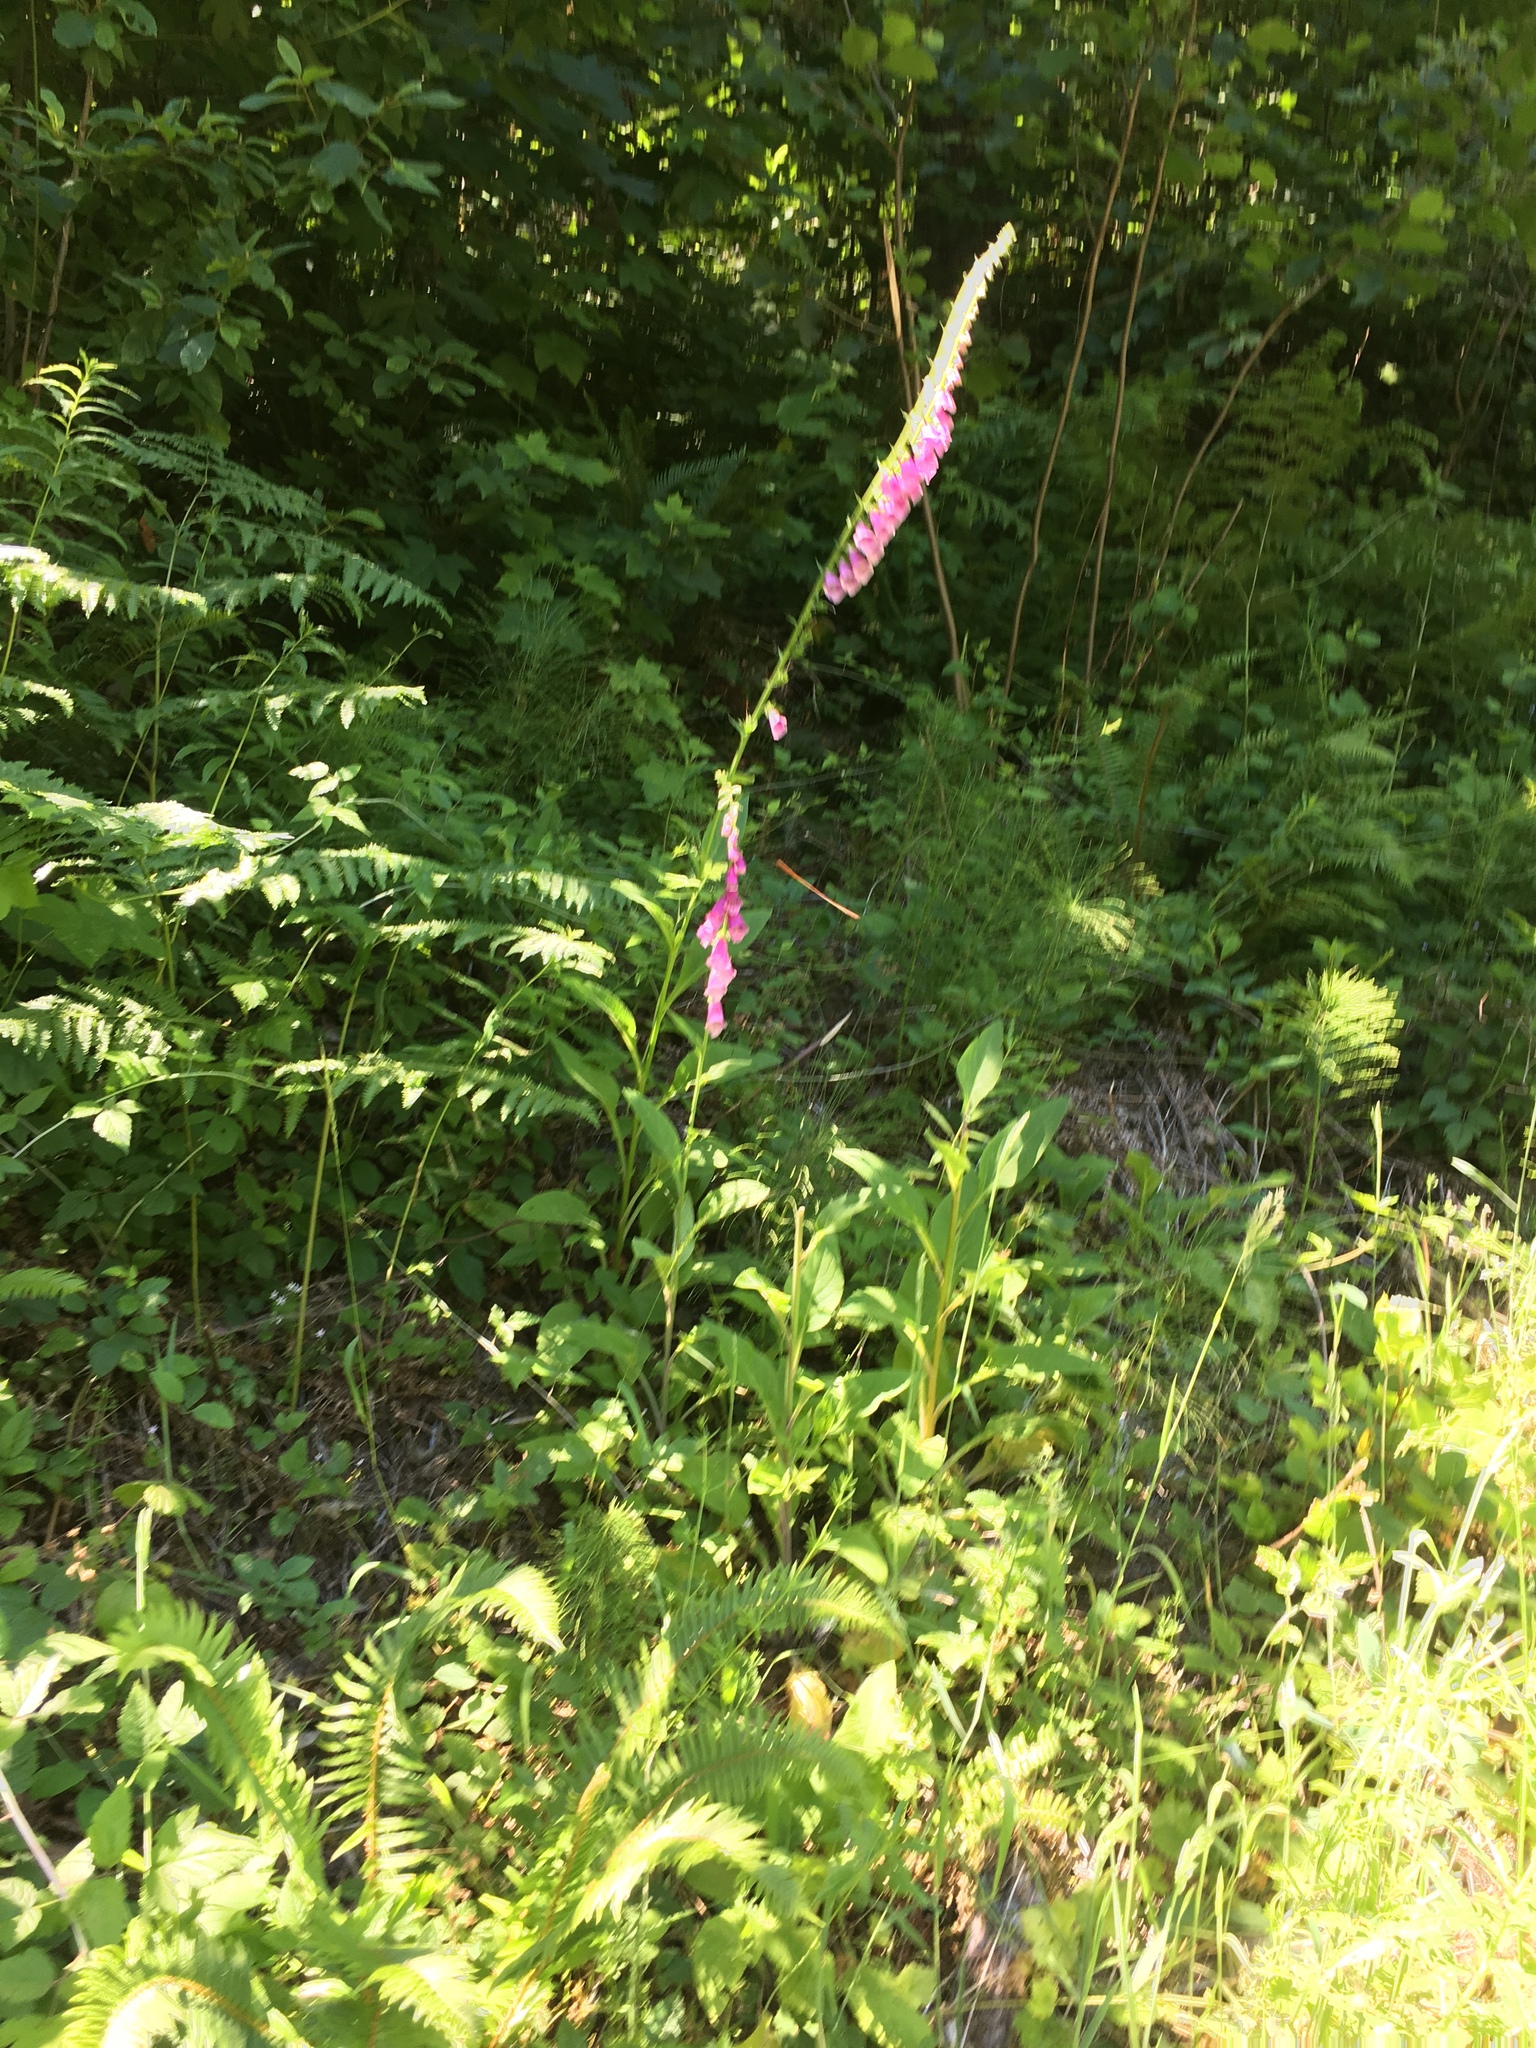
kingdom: Plantae
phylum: Tracheophyta
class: Magnoliopsida
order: Lamiales
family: Plantaginaceae
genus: Digitalis
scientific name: Digitalis purpurea
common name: Foxglove
